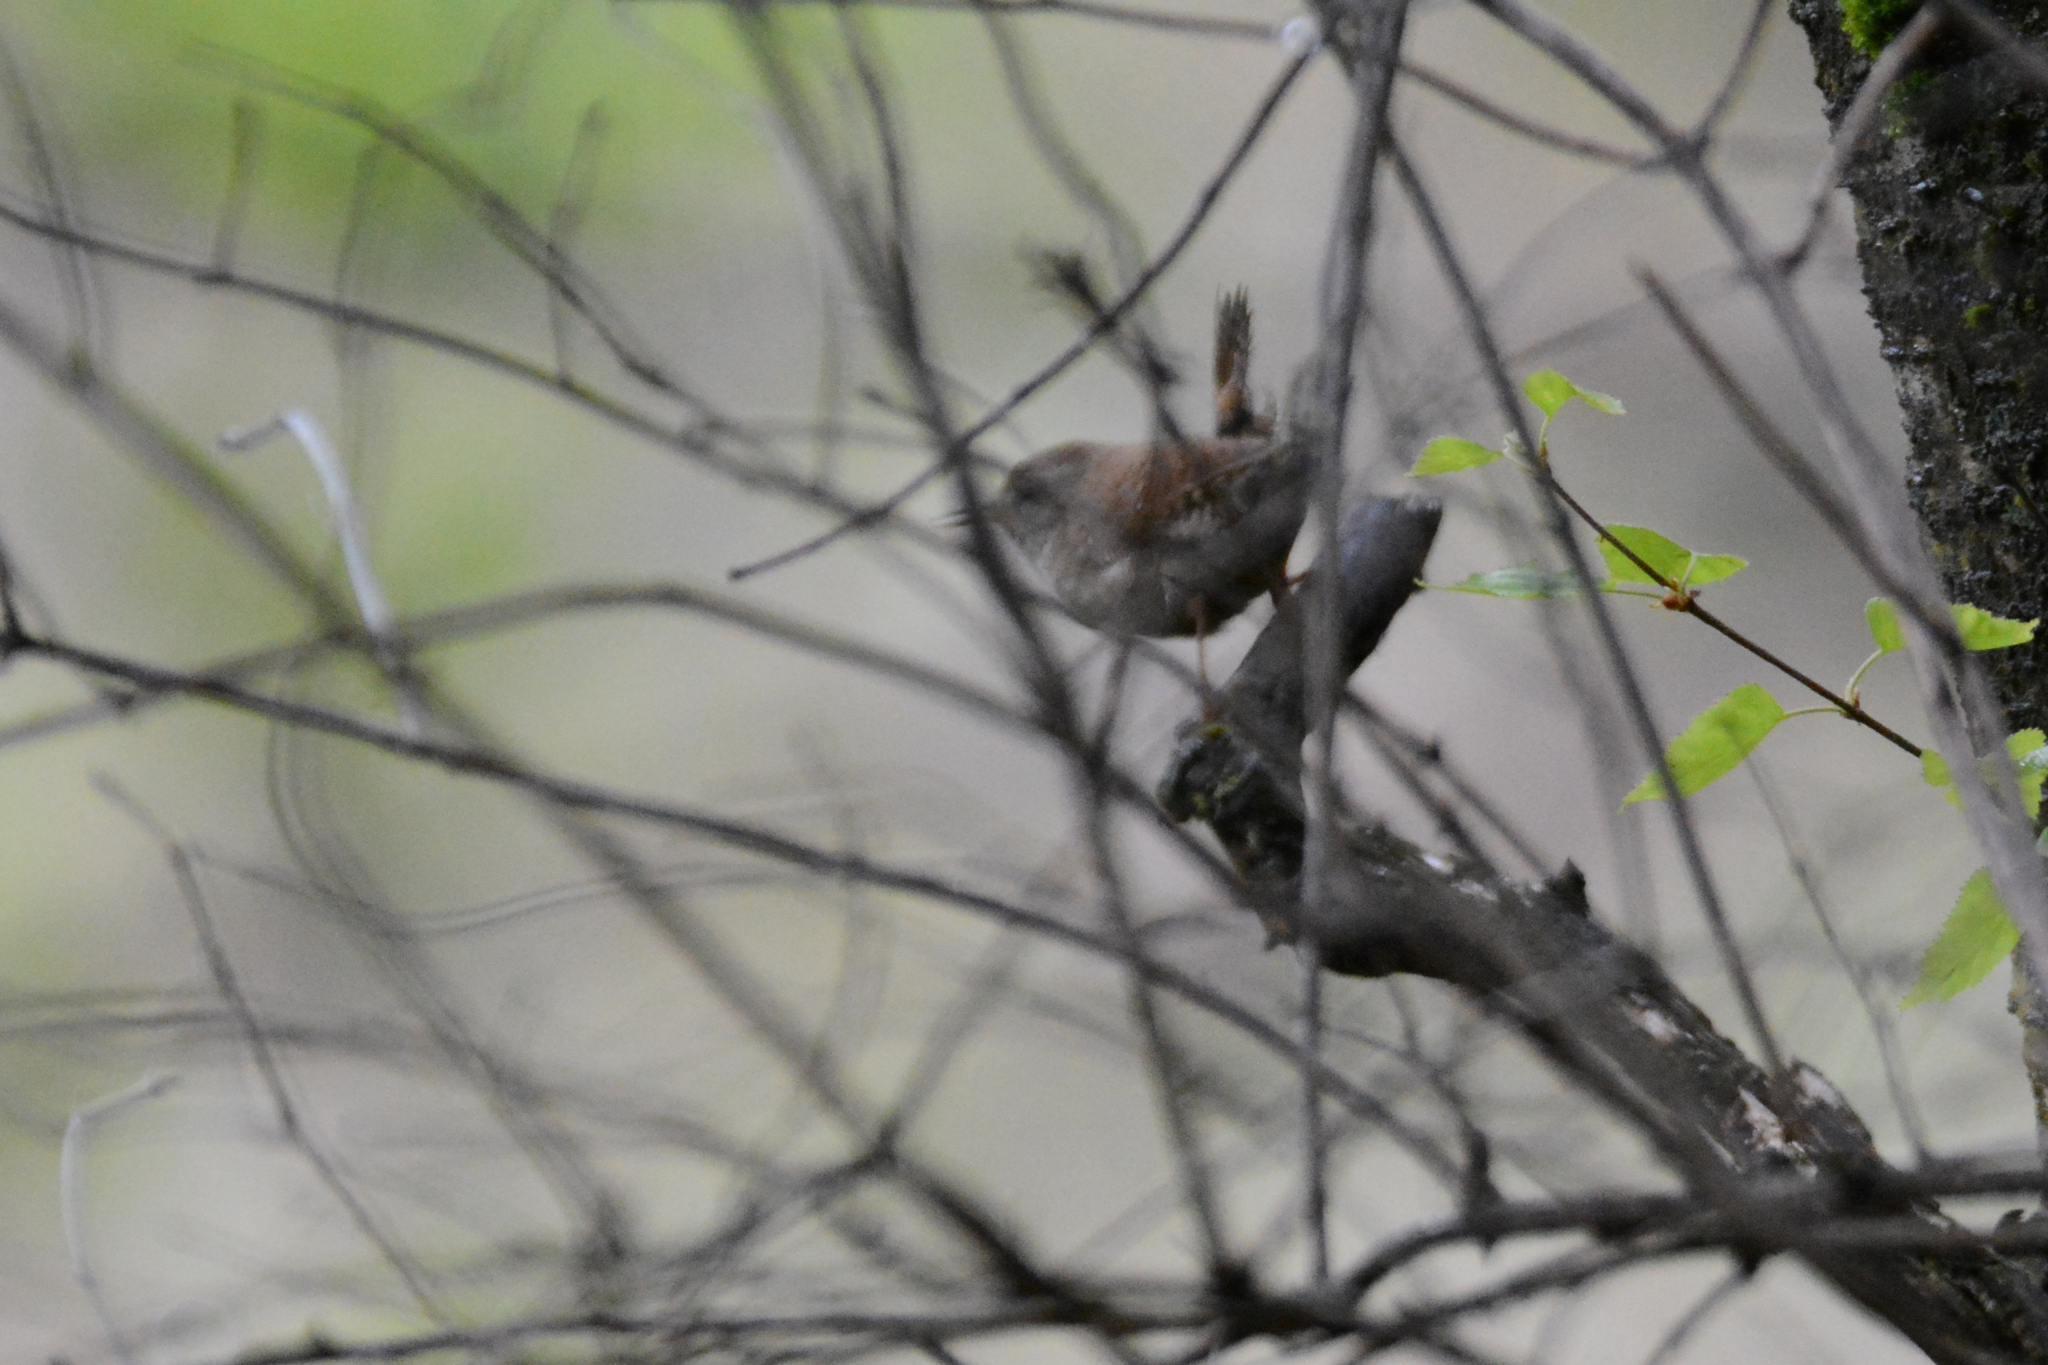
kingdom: Animalia
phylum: Chordata
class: Aves
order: Passeriformes
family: Troglodytidae
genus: Troglodytes
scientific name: Troglodytes troglodytes
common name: Eurasian wren
